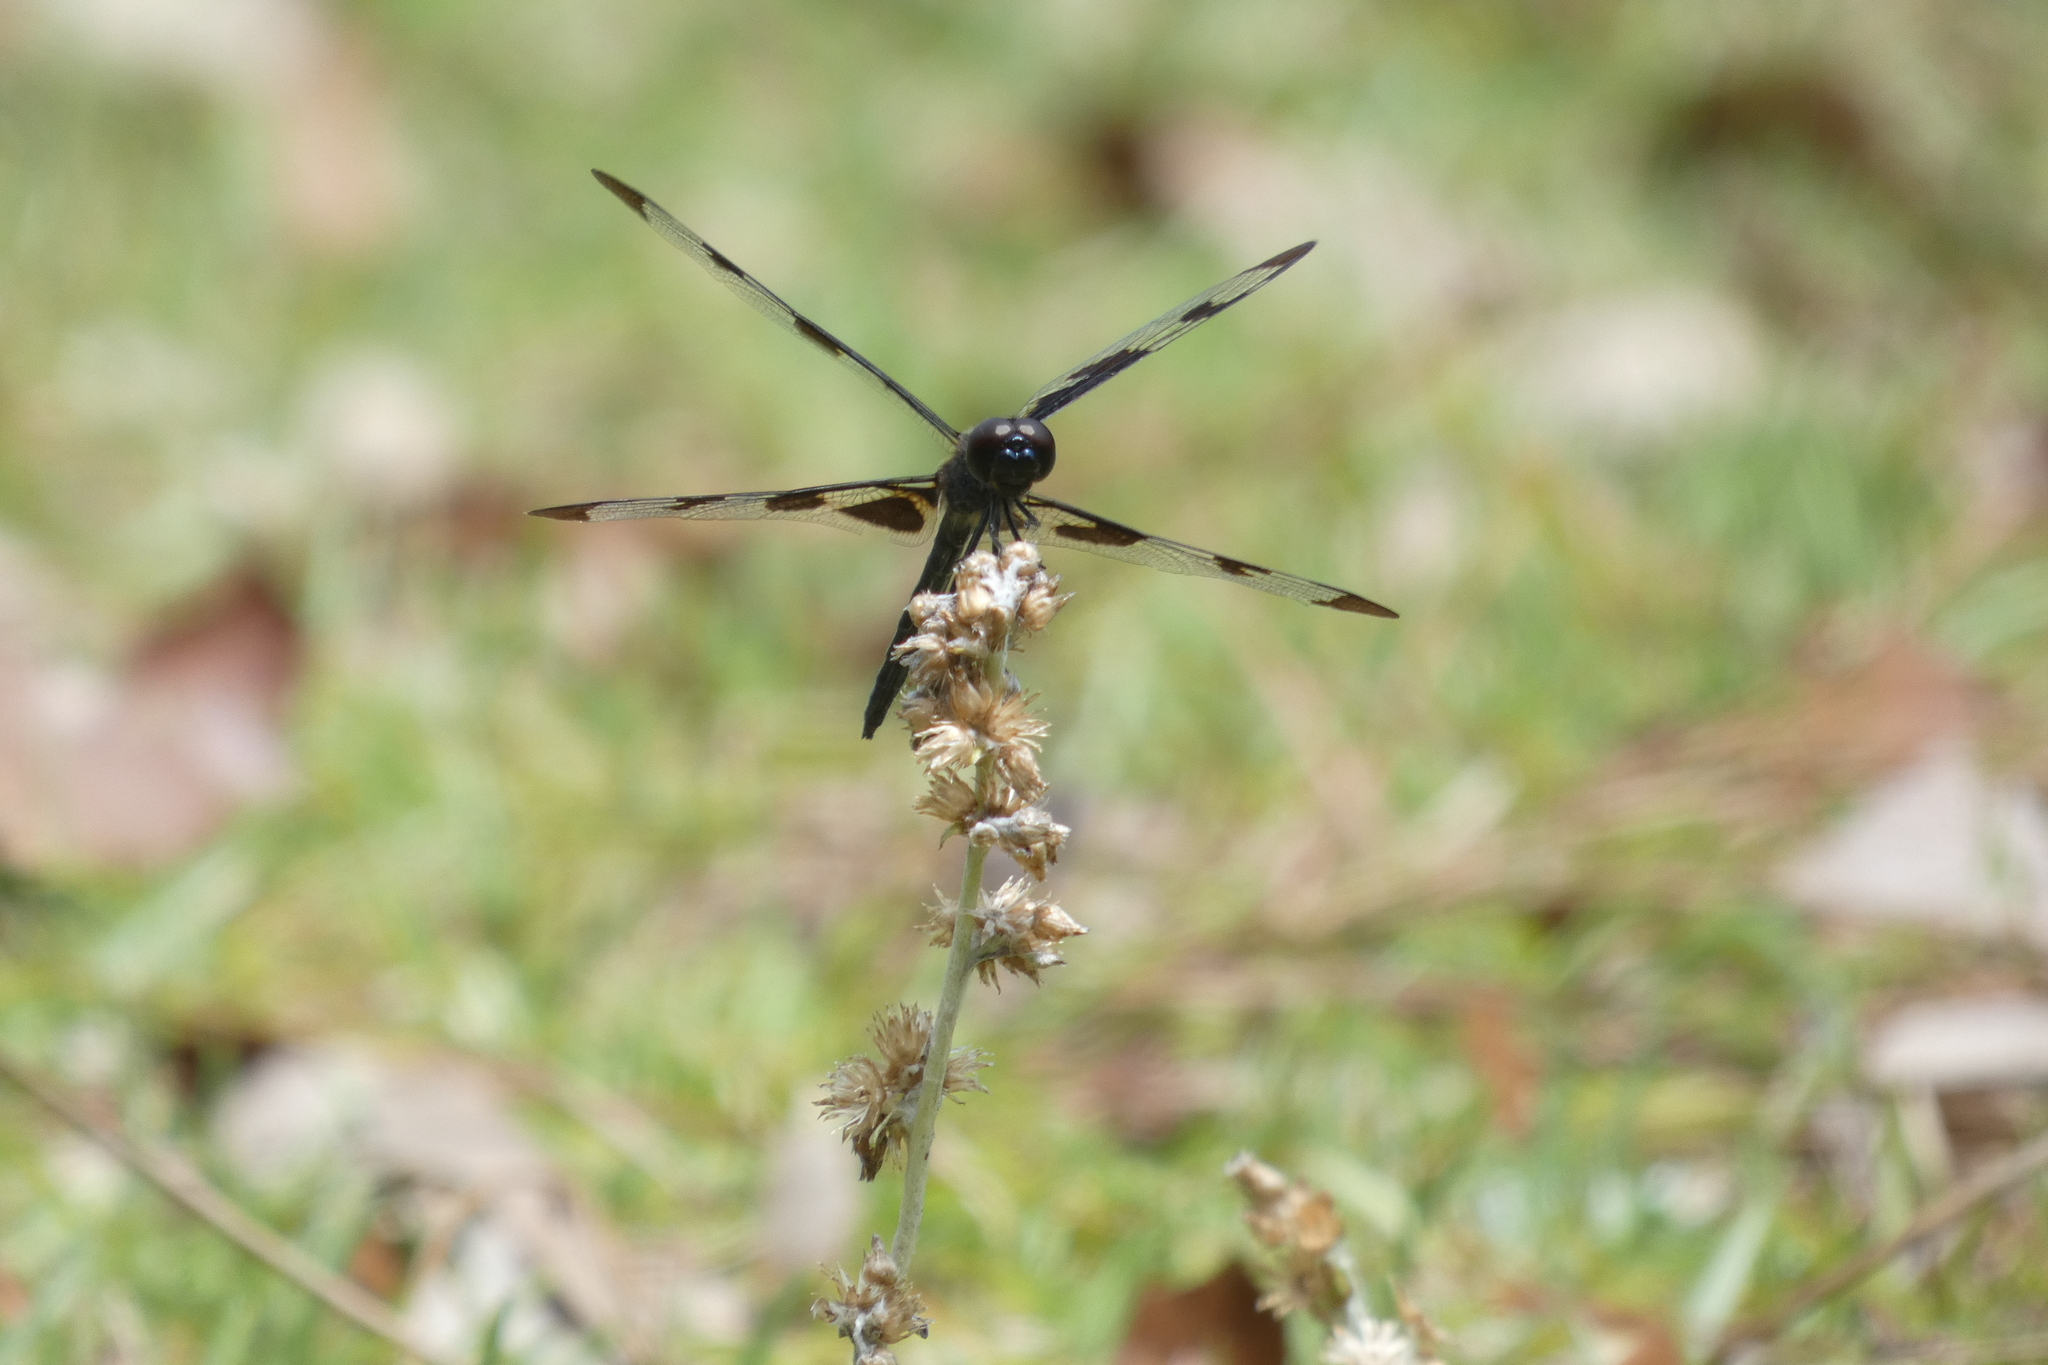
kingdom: Animalia
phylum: Arthropoda
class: Insecta
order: Odonata
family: Libellulidae
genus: Celithemis
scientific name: Celithemis fasciata
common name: Banded pennant
